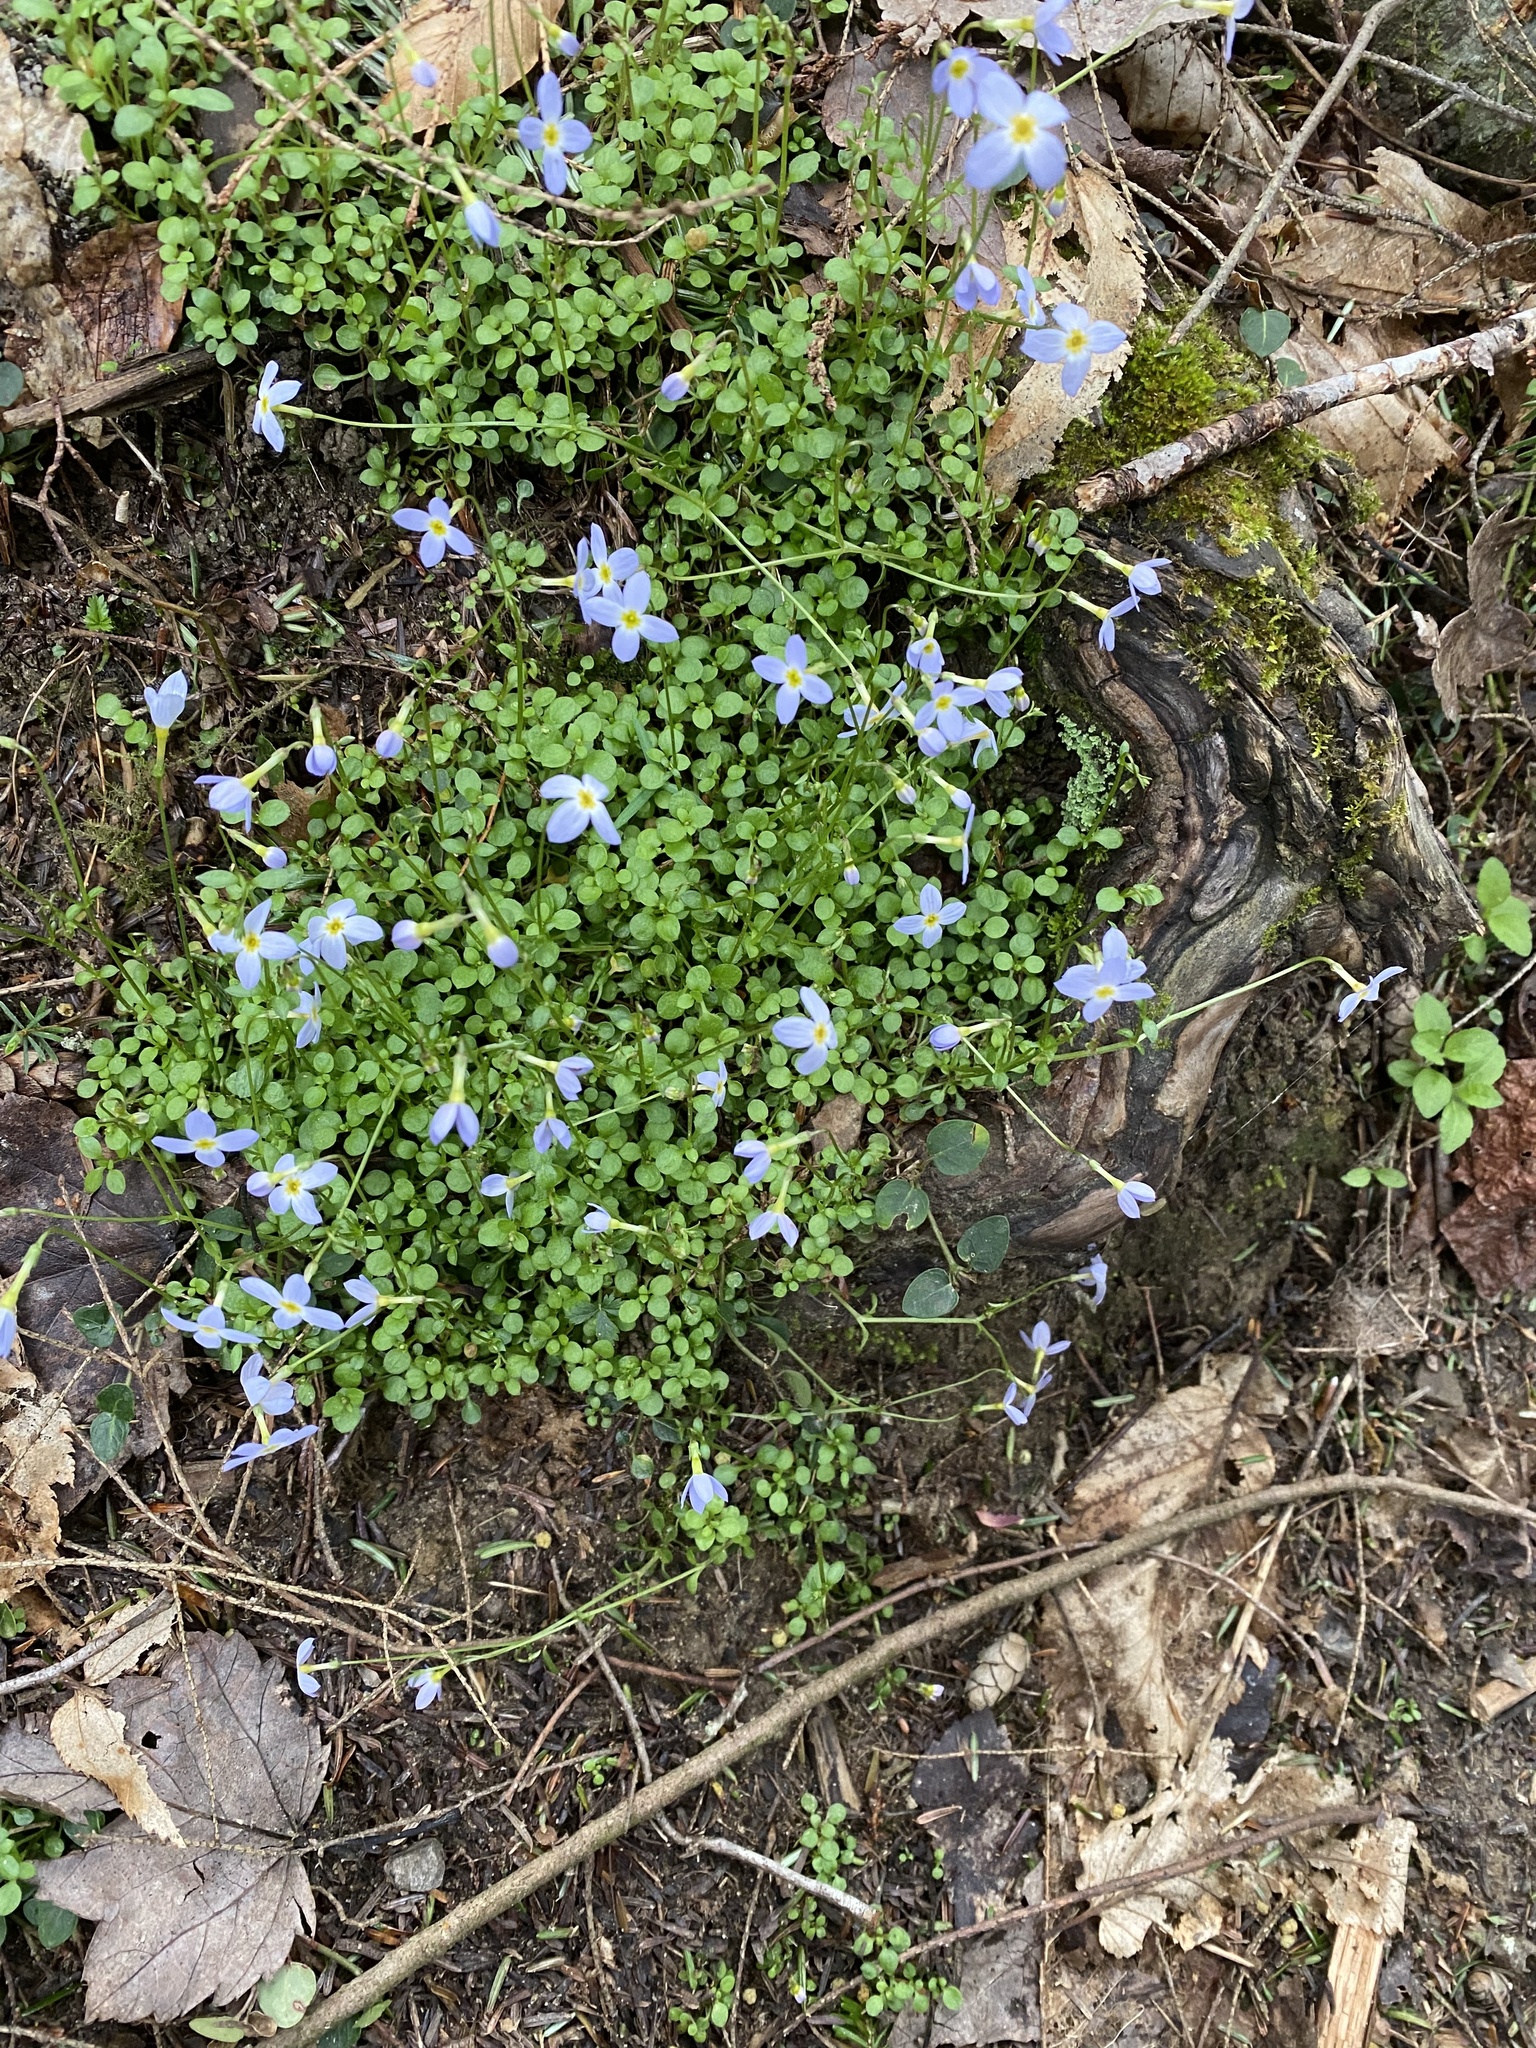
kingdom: Plantae
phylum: Tracheophyta
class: Magnoliopsida
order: Gentianales
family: Rubiaceae
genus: Houstonia
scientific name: Houstonia serpyllifolia
